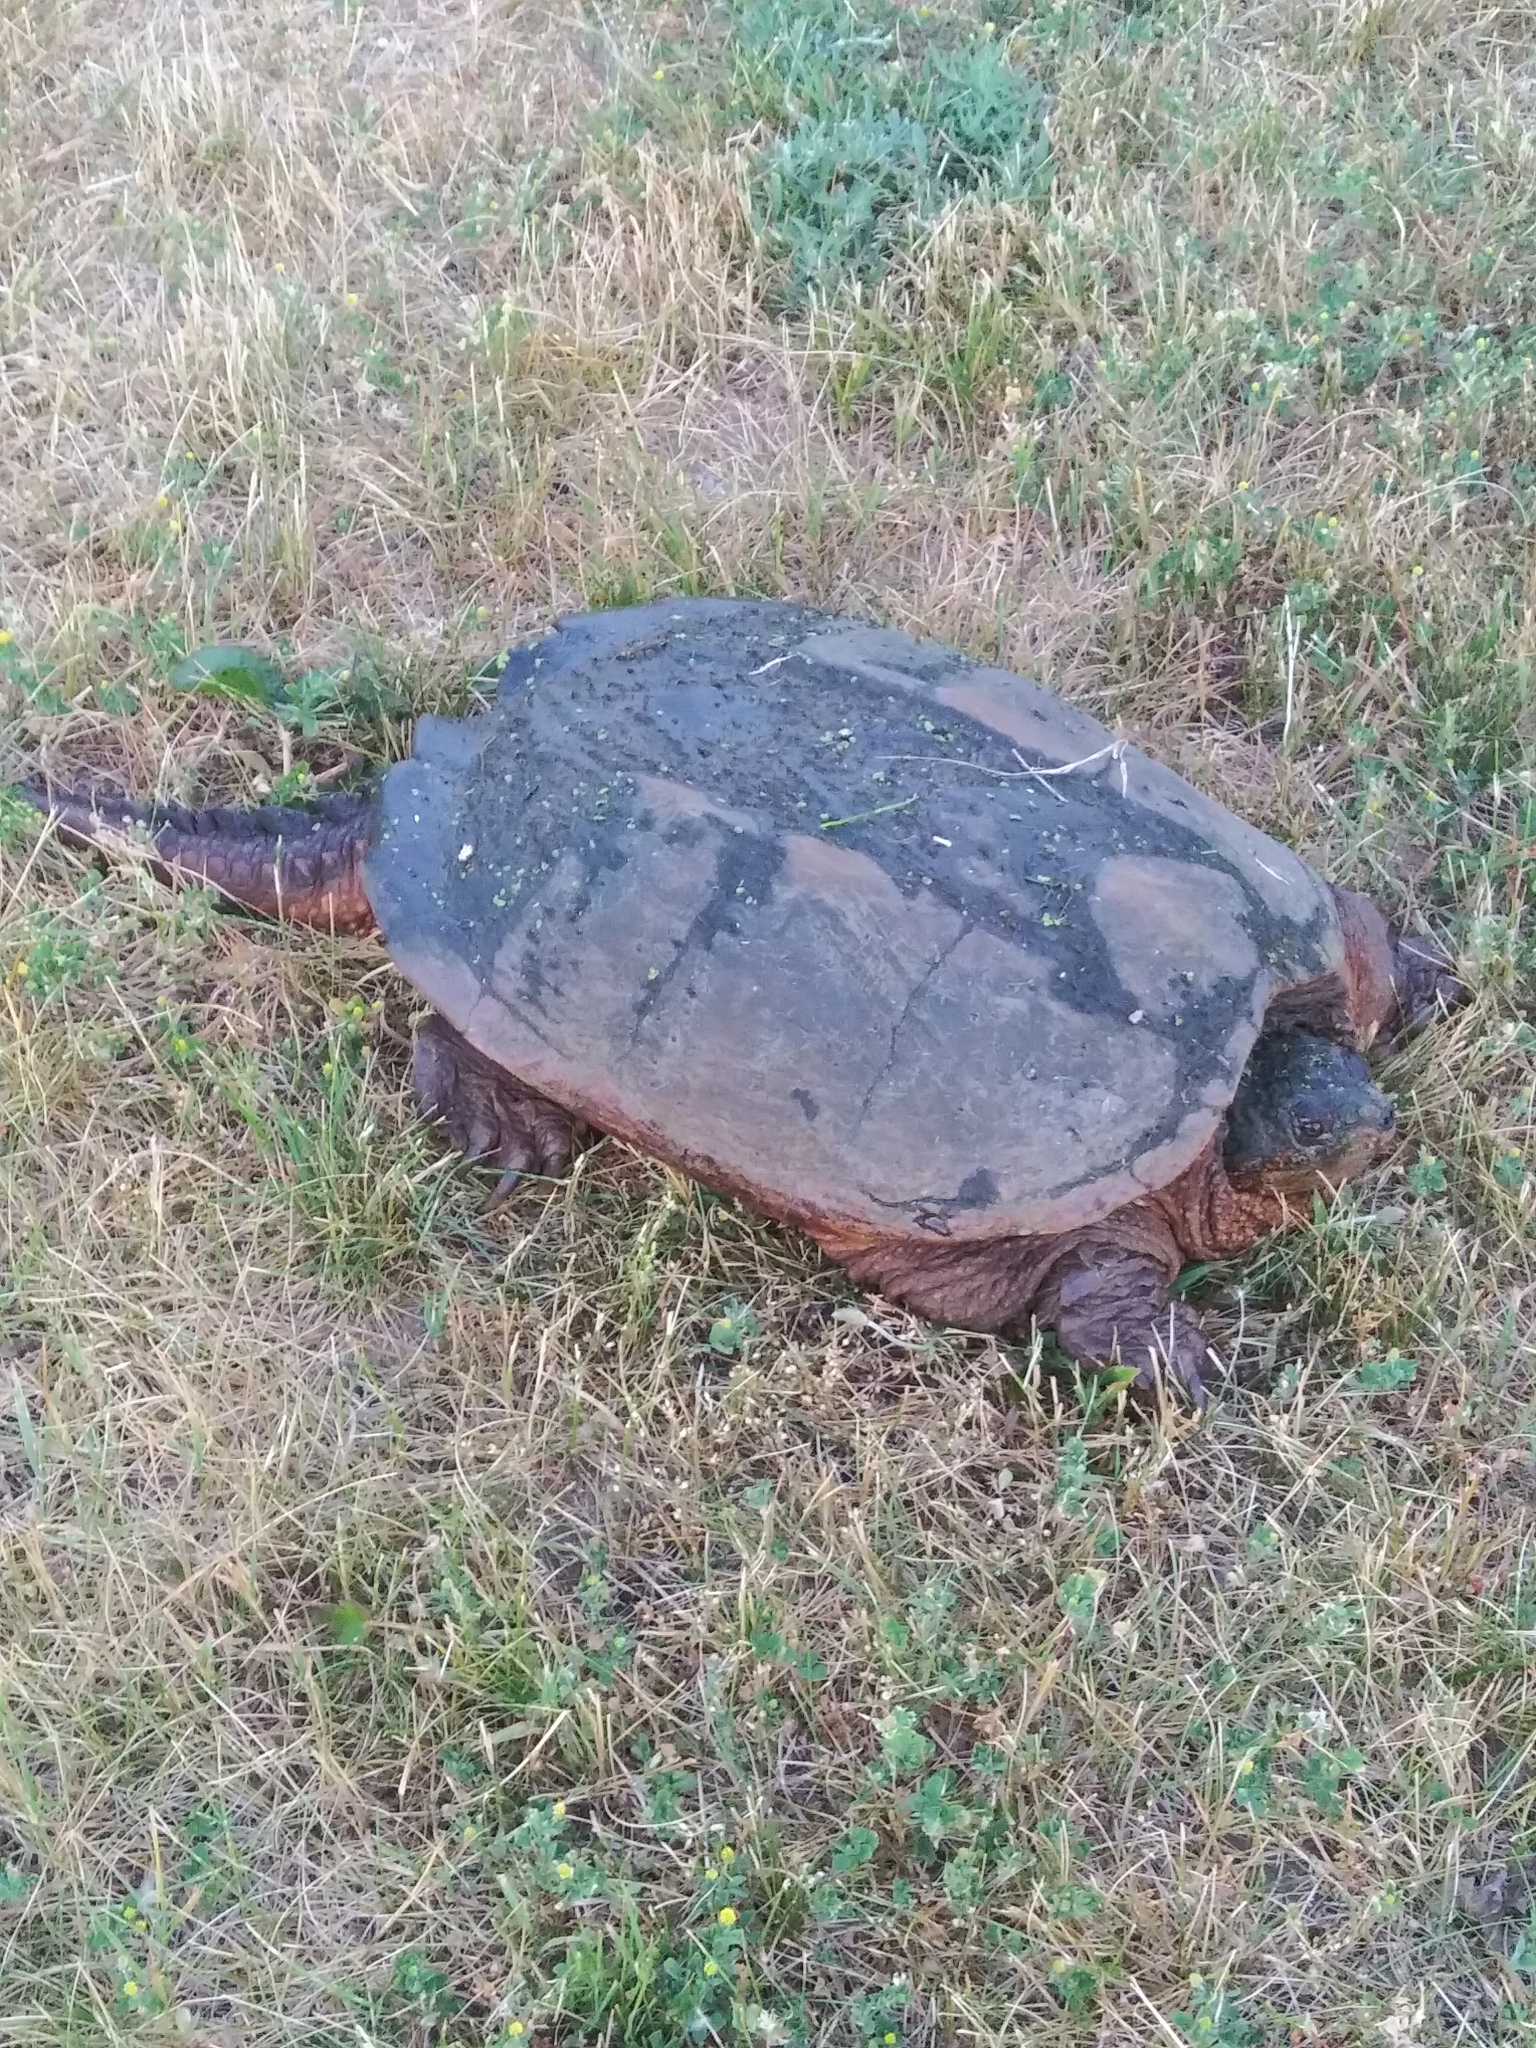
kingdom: Animalia
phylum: Chordata
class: Testudines
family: Chelydridae
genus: Chelydra
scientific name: Chelydra serpentina
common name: Common snapping turtle
